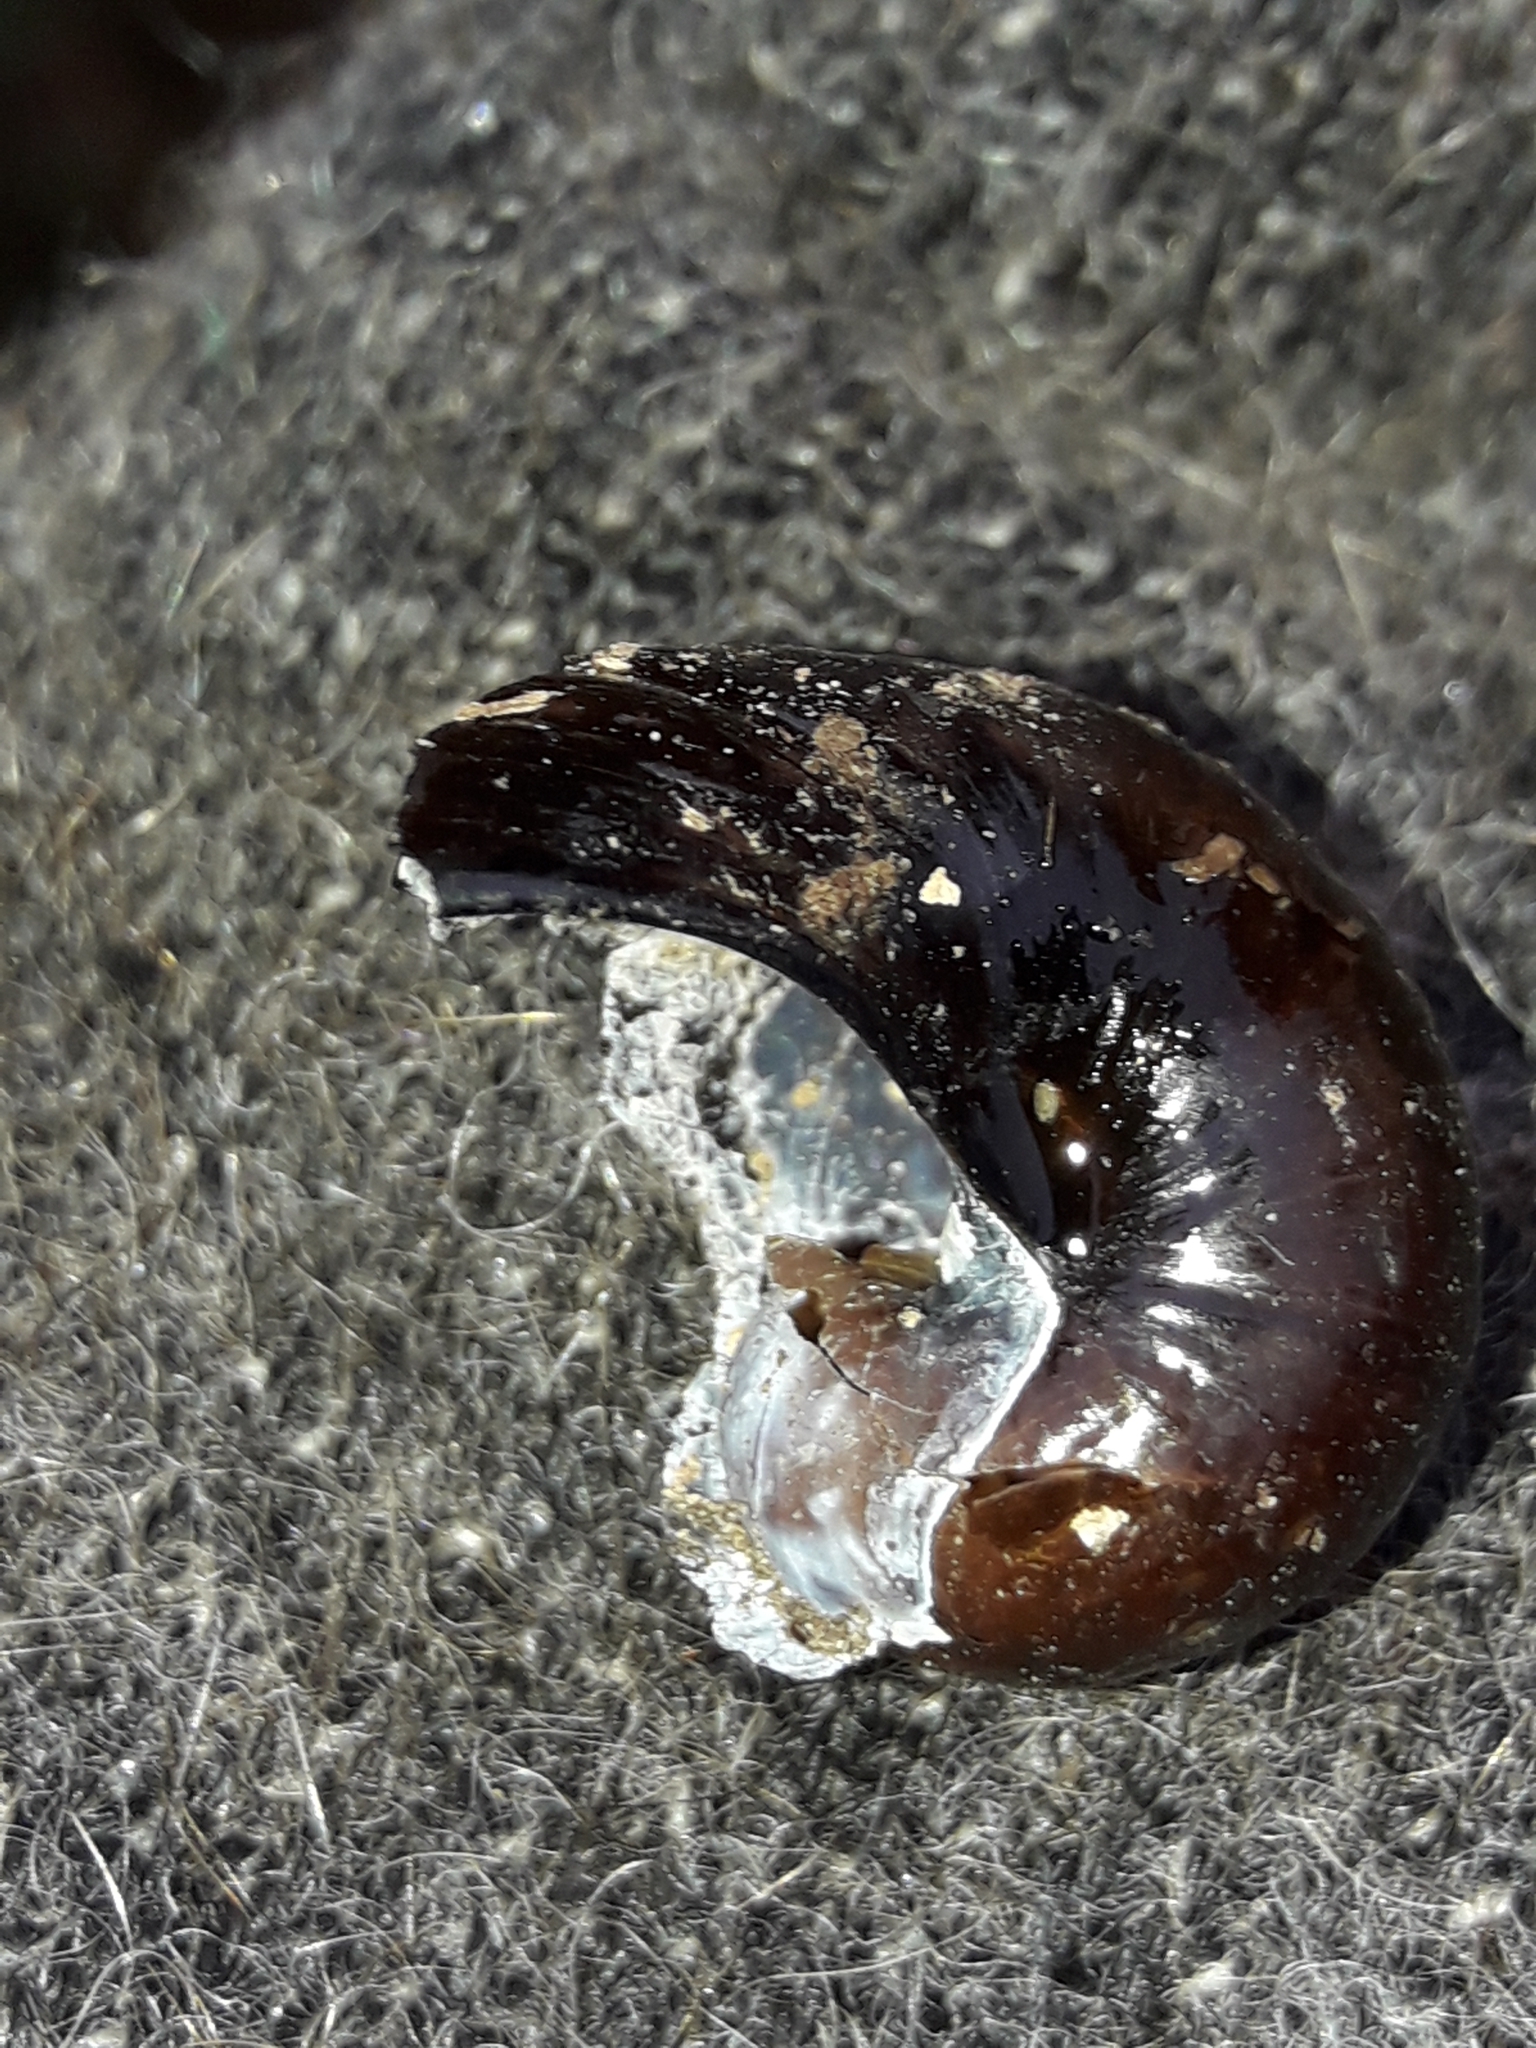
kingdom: Animalia
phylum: Mollusca
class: Gastropoda
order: Stylommatophora
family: Rhytididae
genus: Wainuia
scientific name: Wainuia urnula
